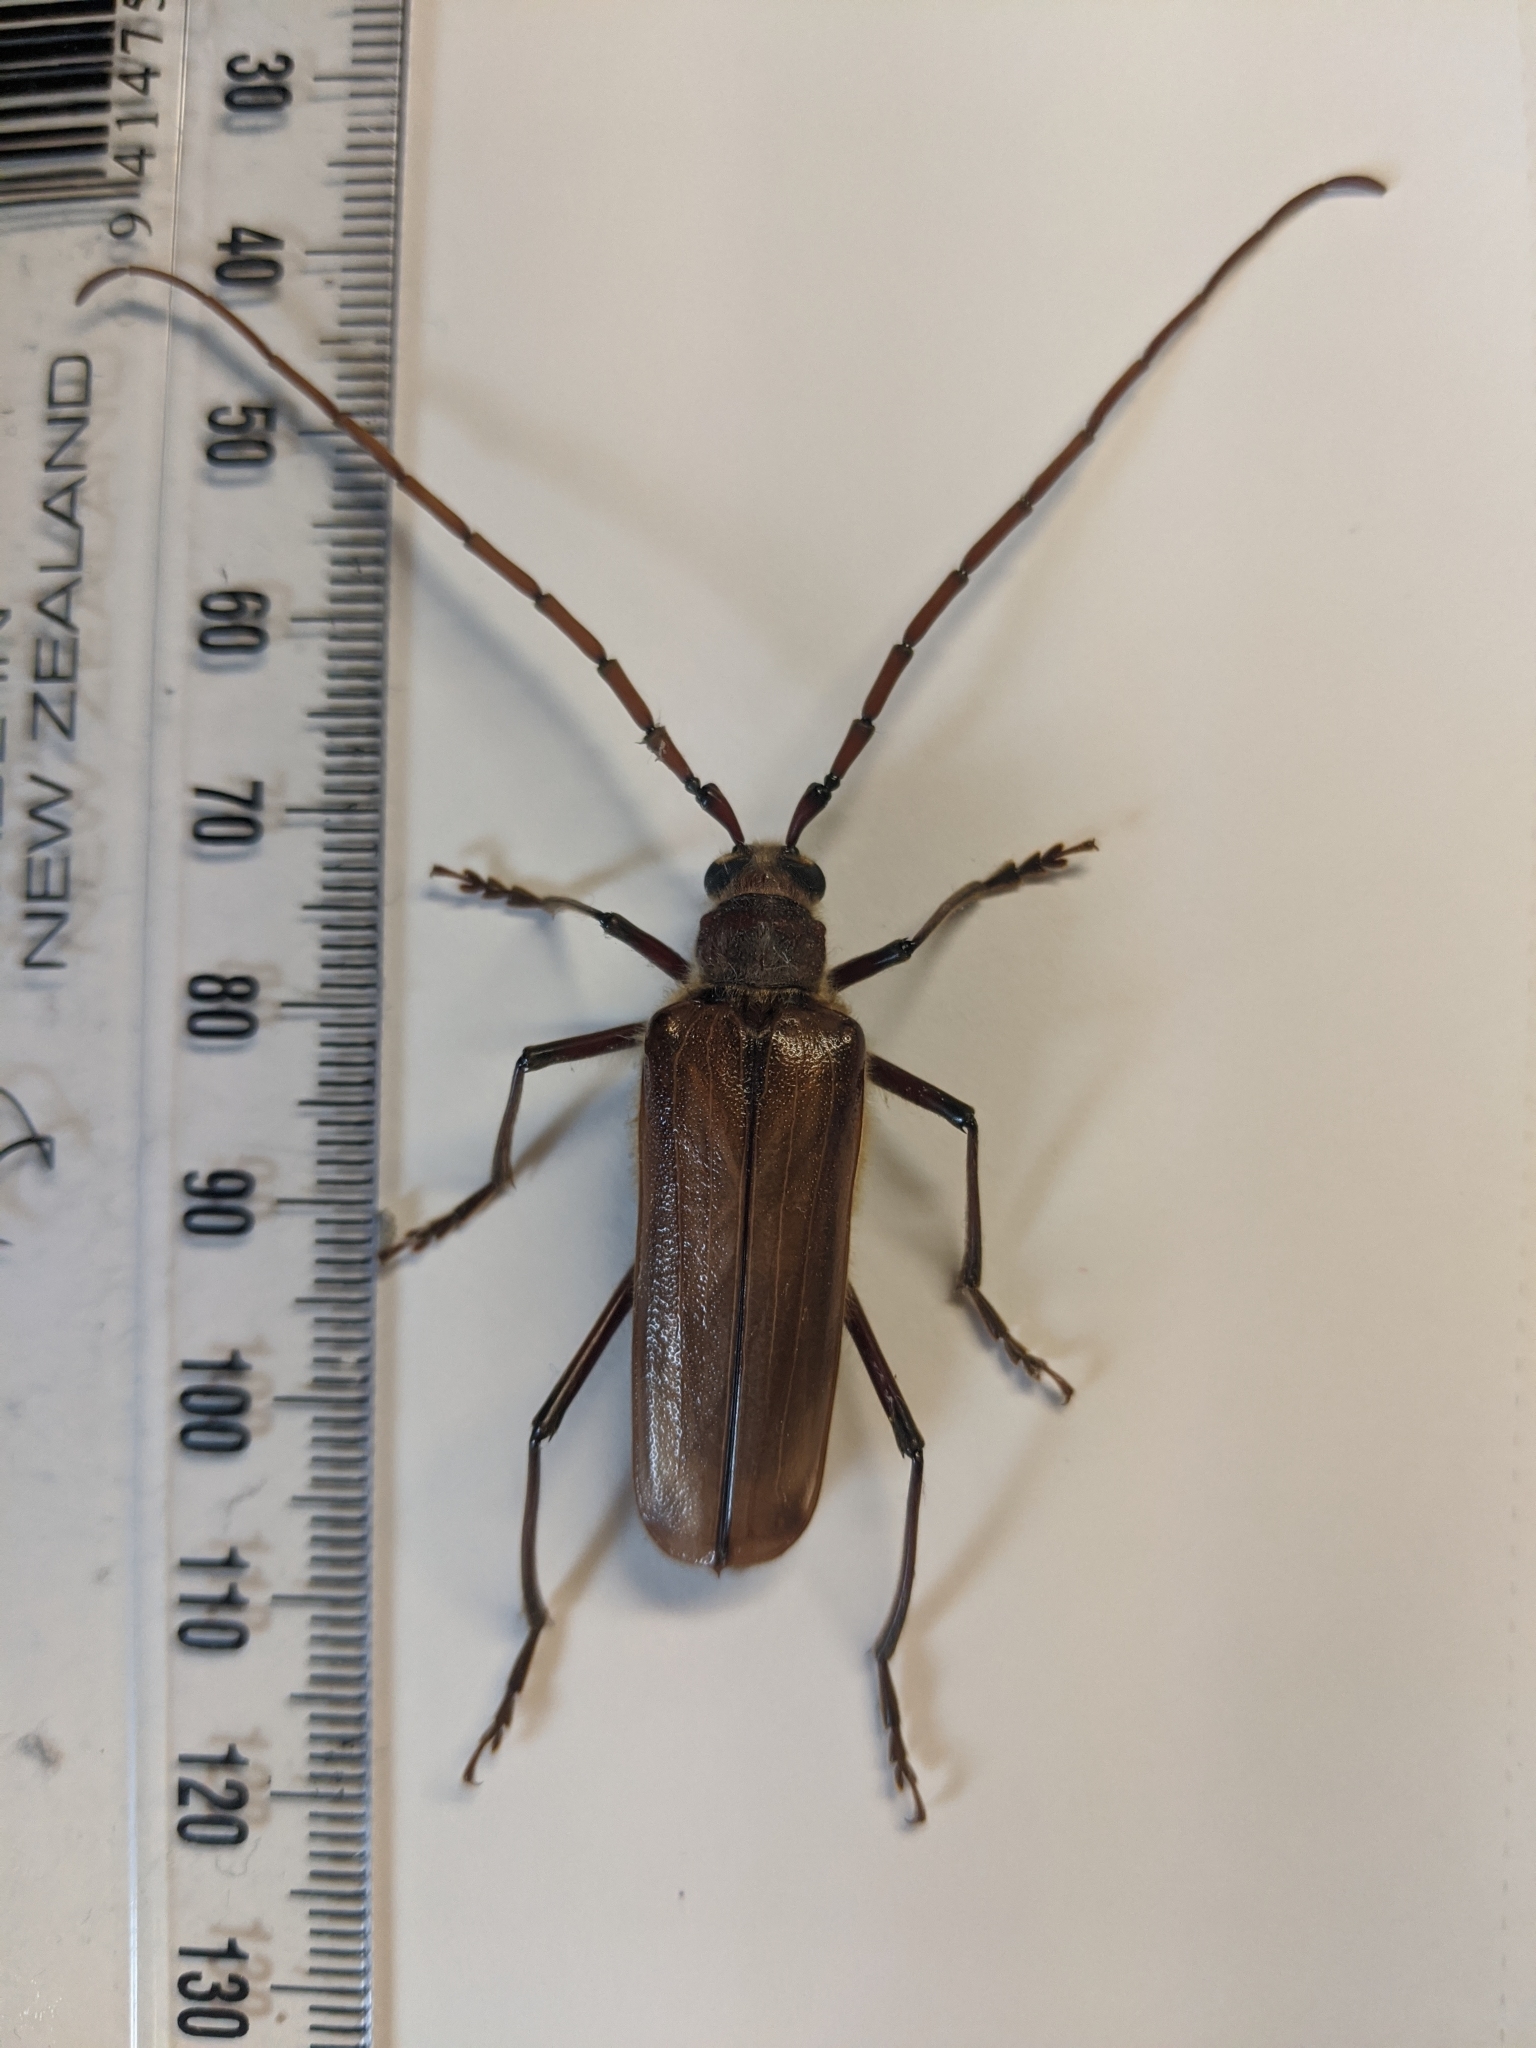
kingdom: Animalia
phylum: Arthropoda
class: Insecta
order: Coleoptera
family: Cerambycidae
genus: Ochrocydus
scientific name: Ochrocydus huttoni
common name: Kanuka longhorn
